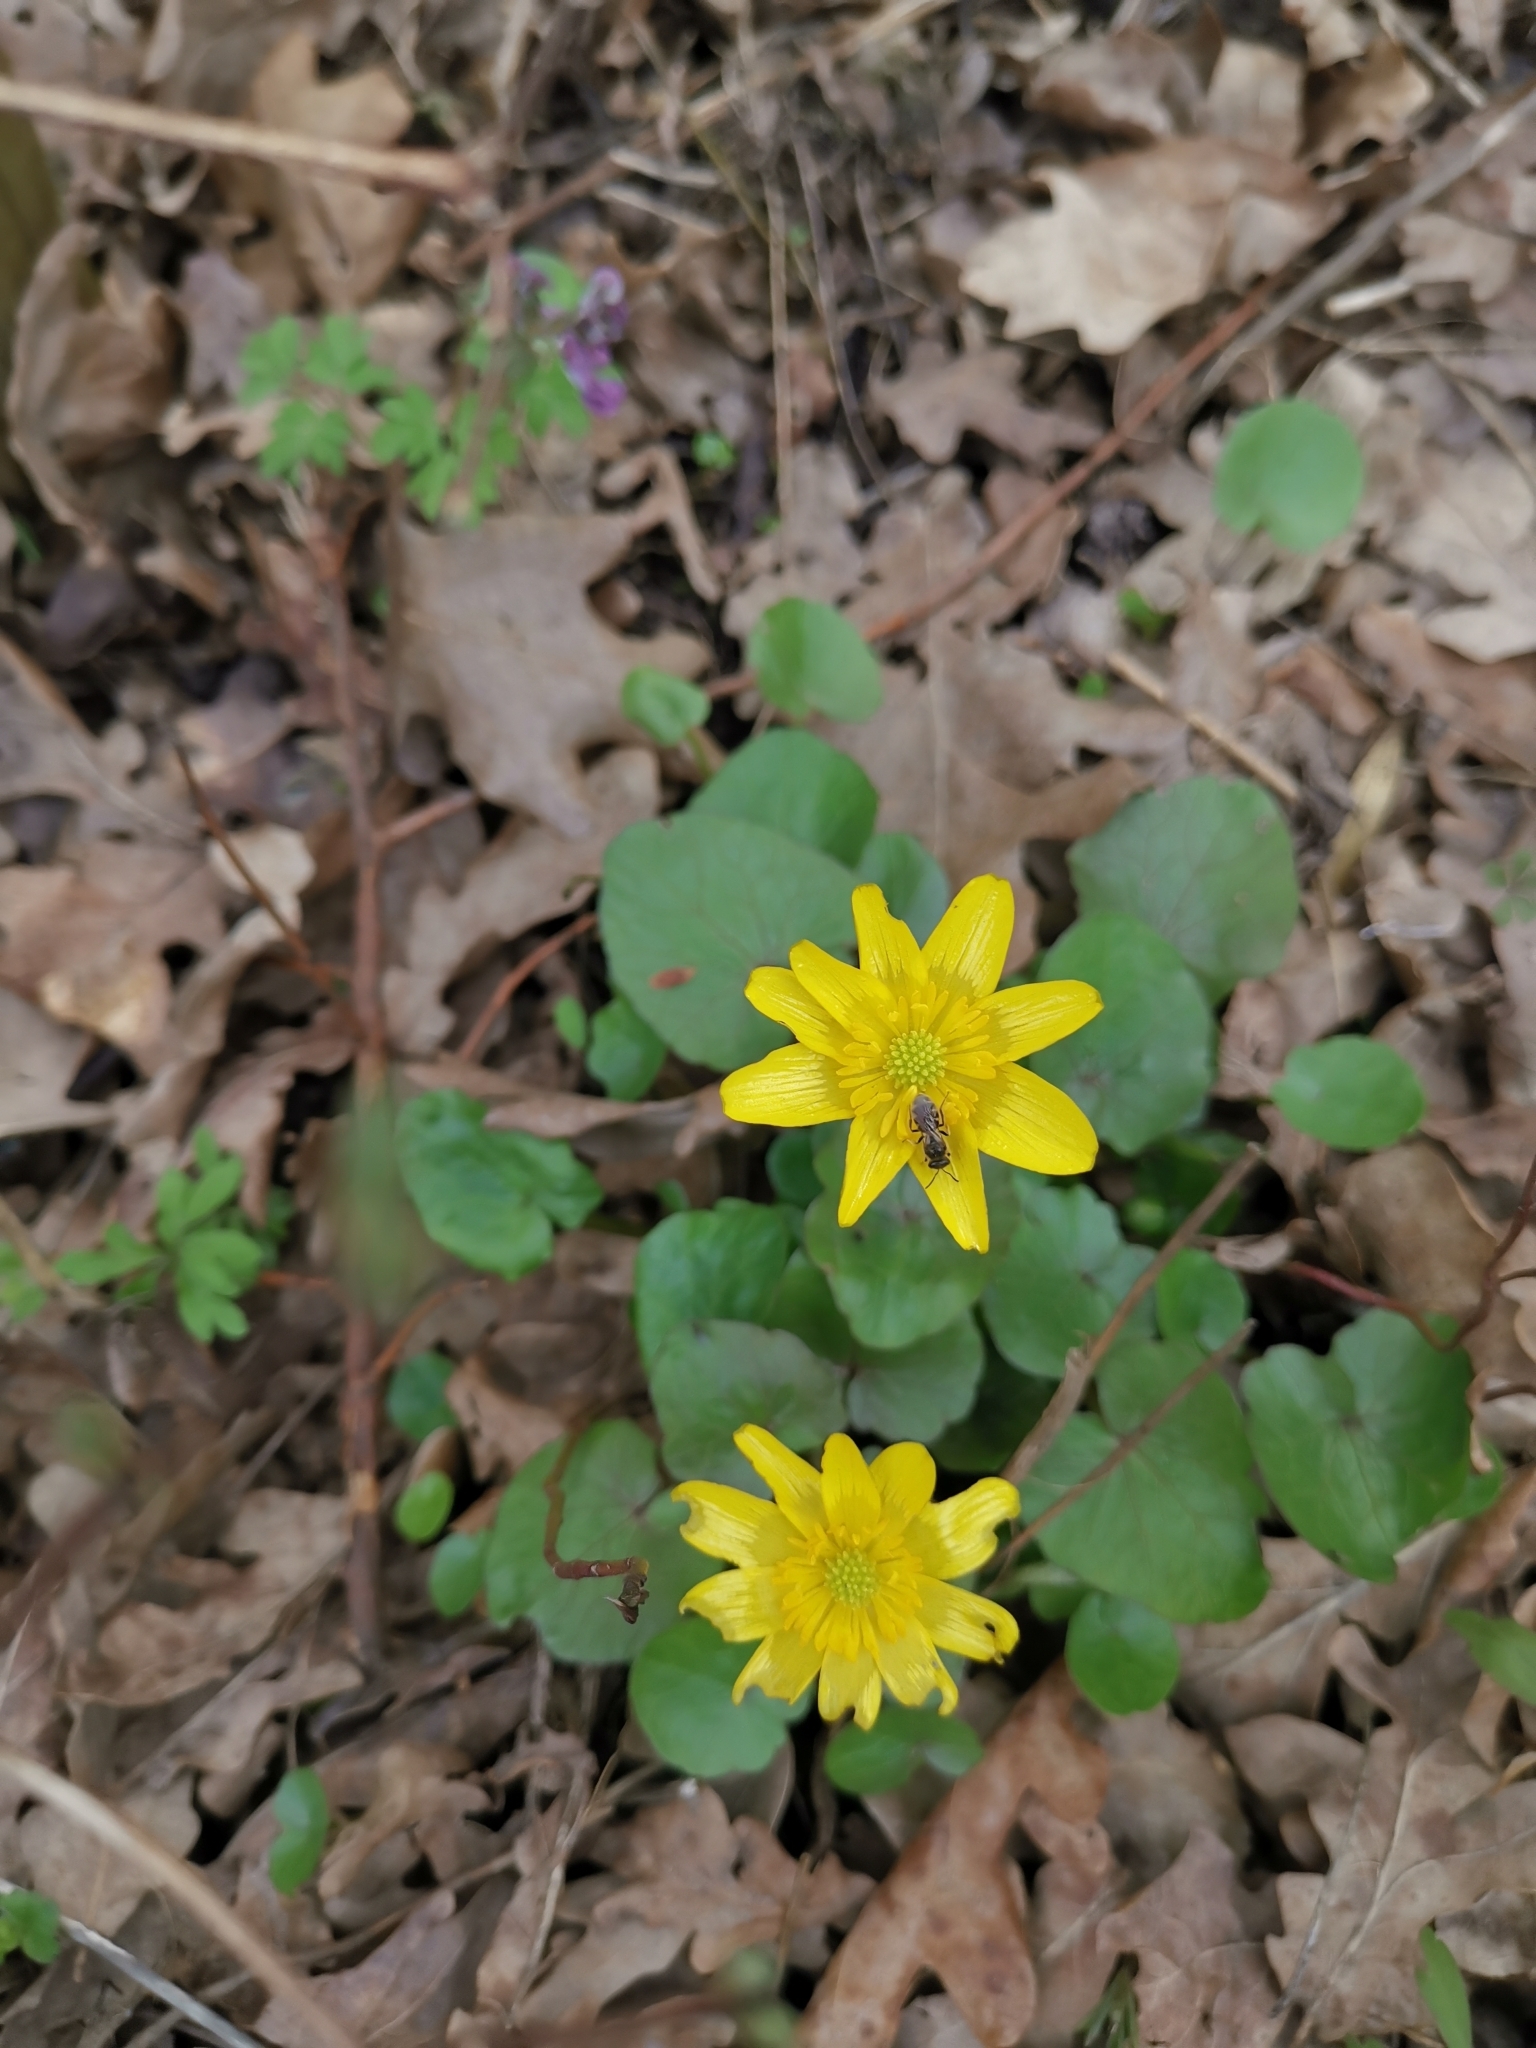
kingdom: Plantae
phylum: Tracheophyta
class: Magnoliopsida
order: Ranunculales
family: Ranunculaceae
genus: Ficaria
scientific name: Ficaria verna
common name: Lesser celandine
